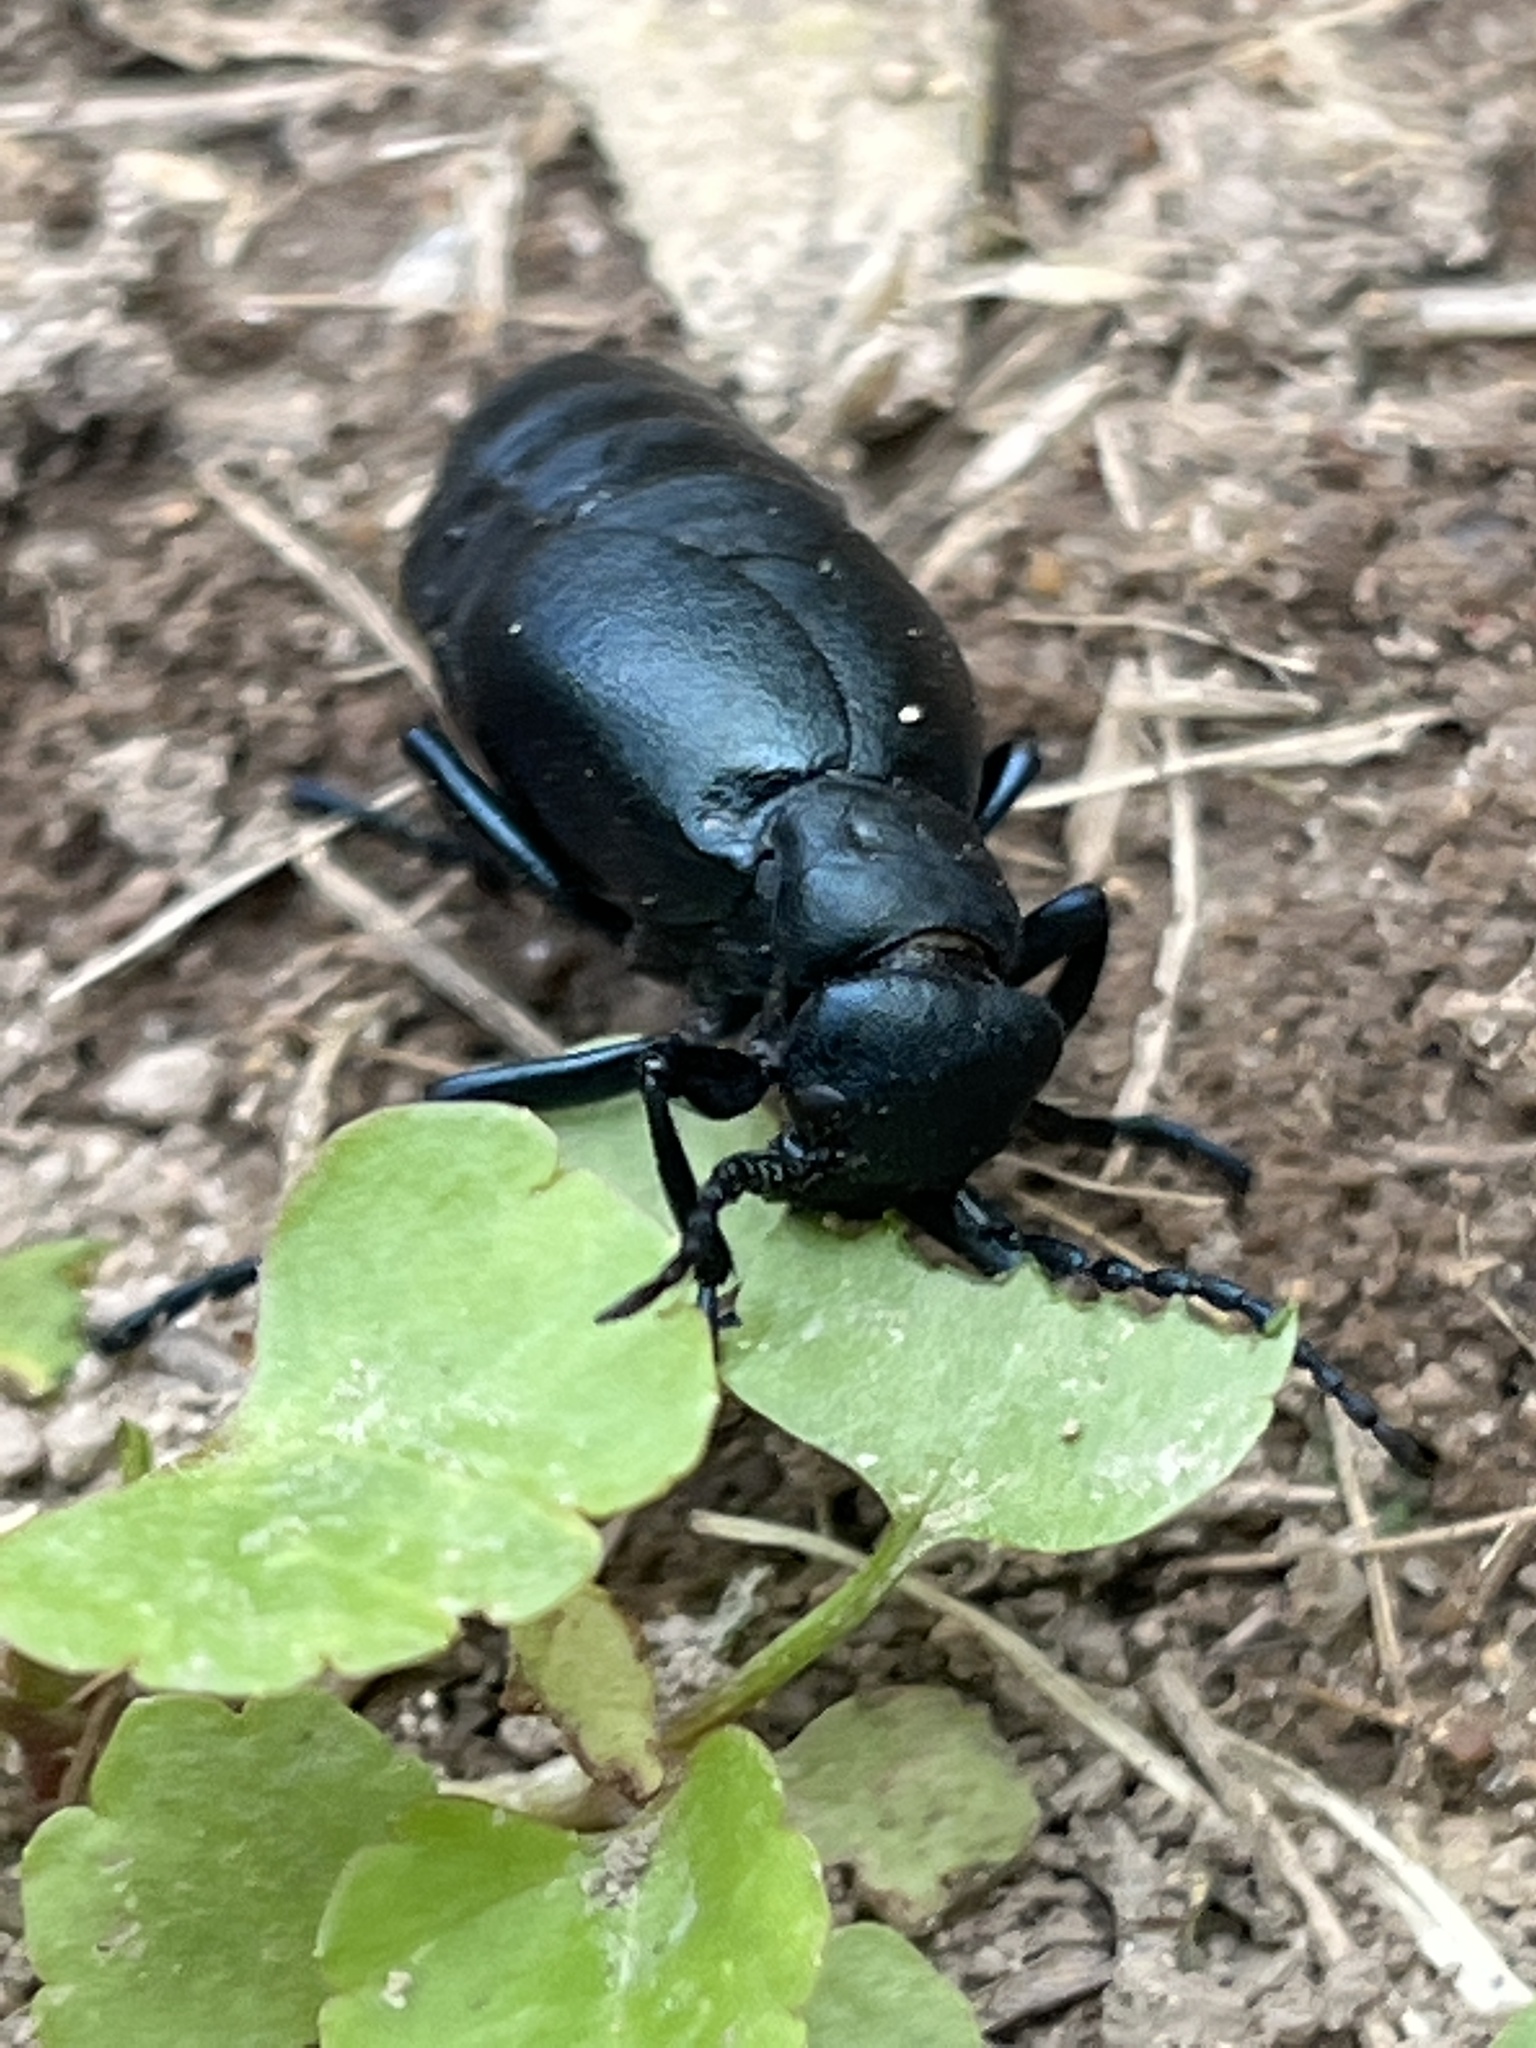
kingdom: Animalia
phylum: Arthropoda
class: Insecta
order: Coleoptera
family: Meloidae
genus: Meloe
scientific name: Meloe campanicollis
